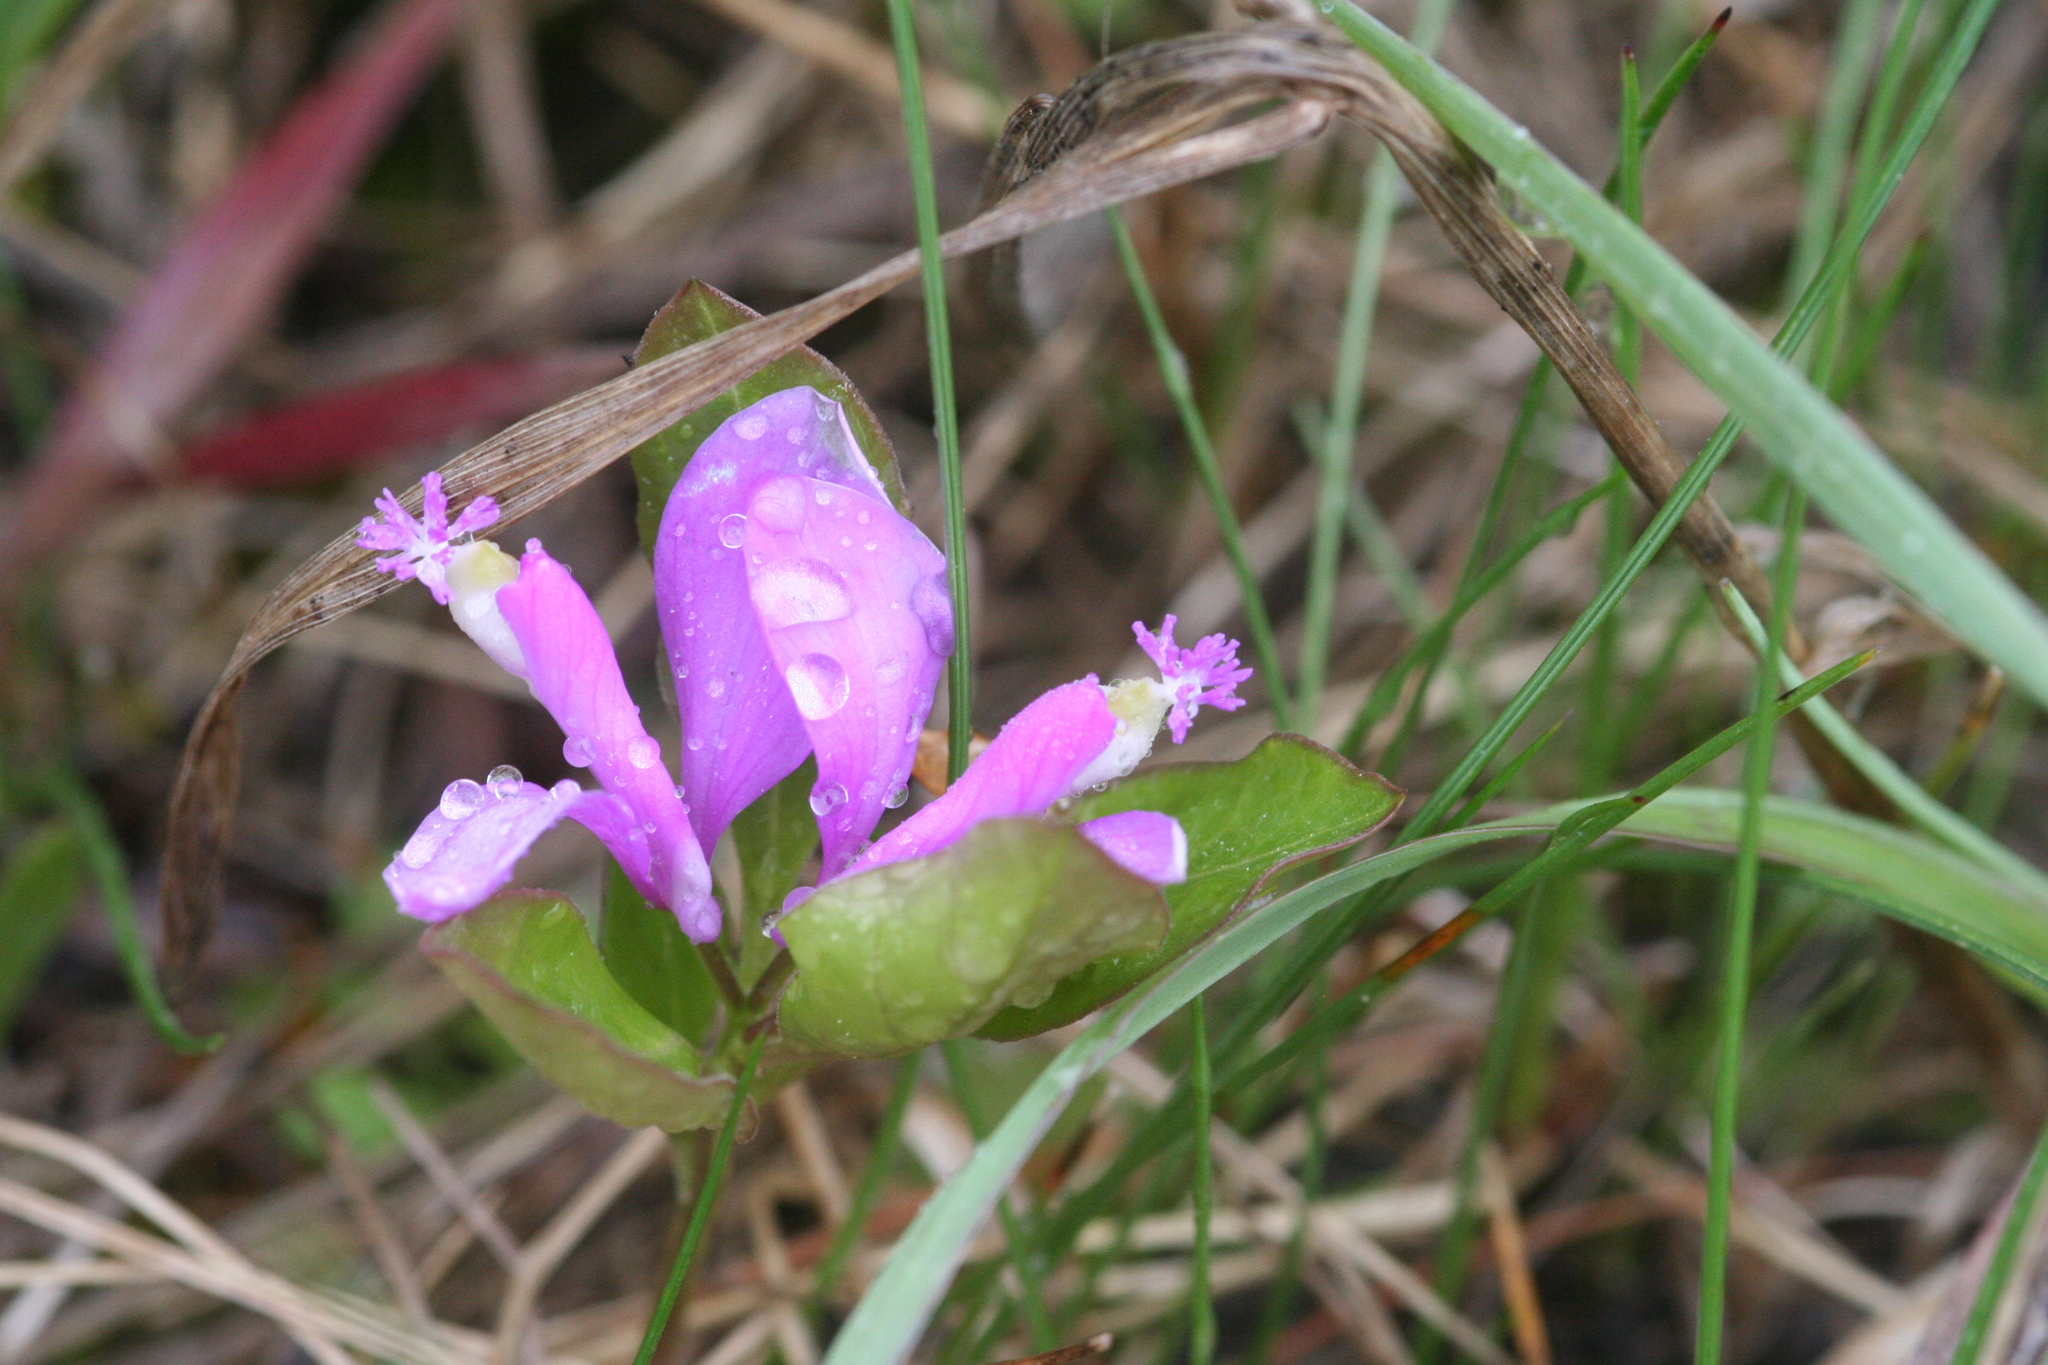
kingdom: Plantae
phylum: Tracheophyta
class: Magnoliopsida
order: Fabales
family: Polygalaceae
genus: Polygaloides
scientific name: Polygaloides paucifolia
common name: Bird-on-the-wing
